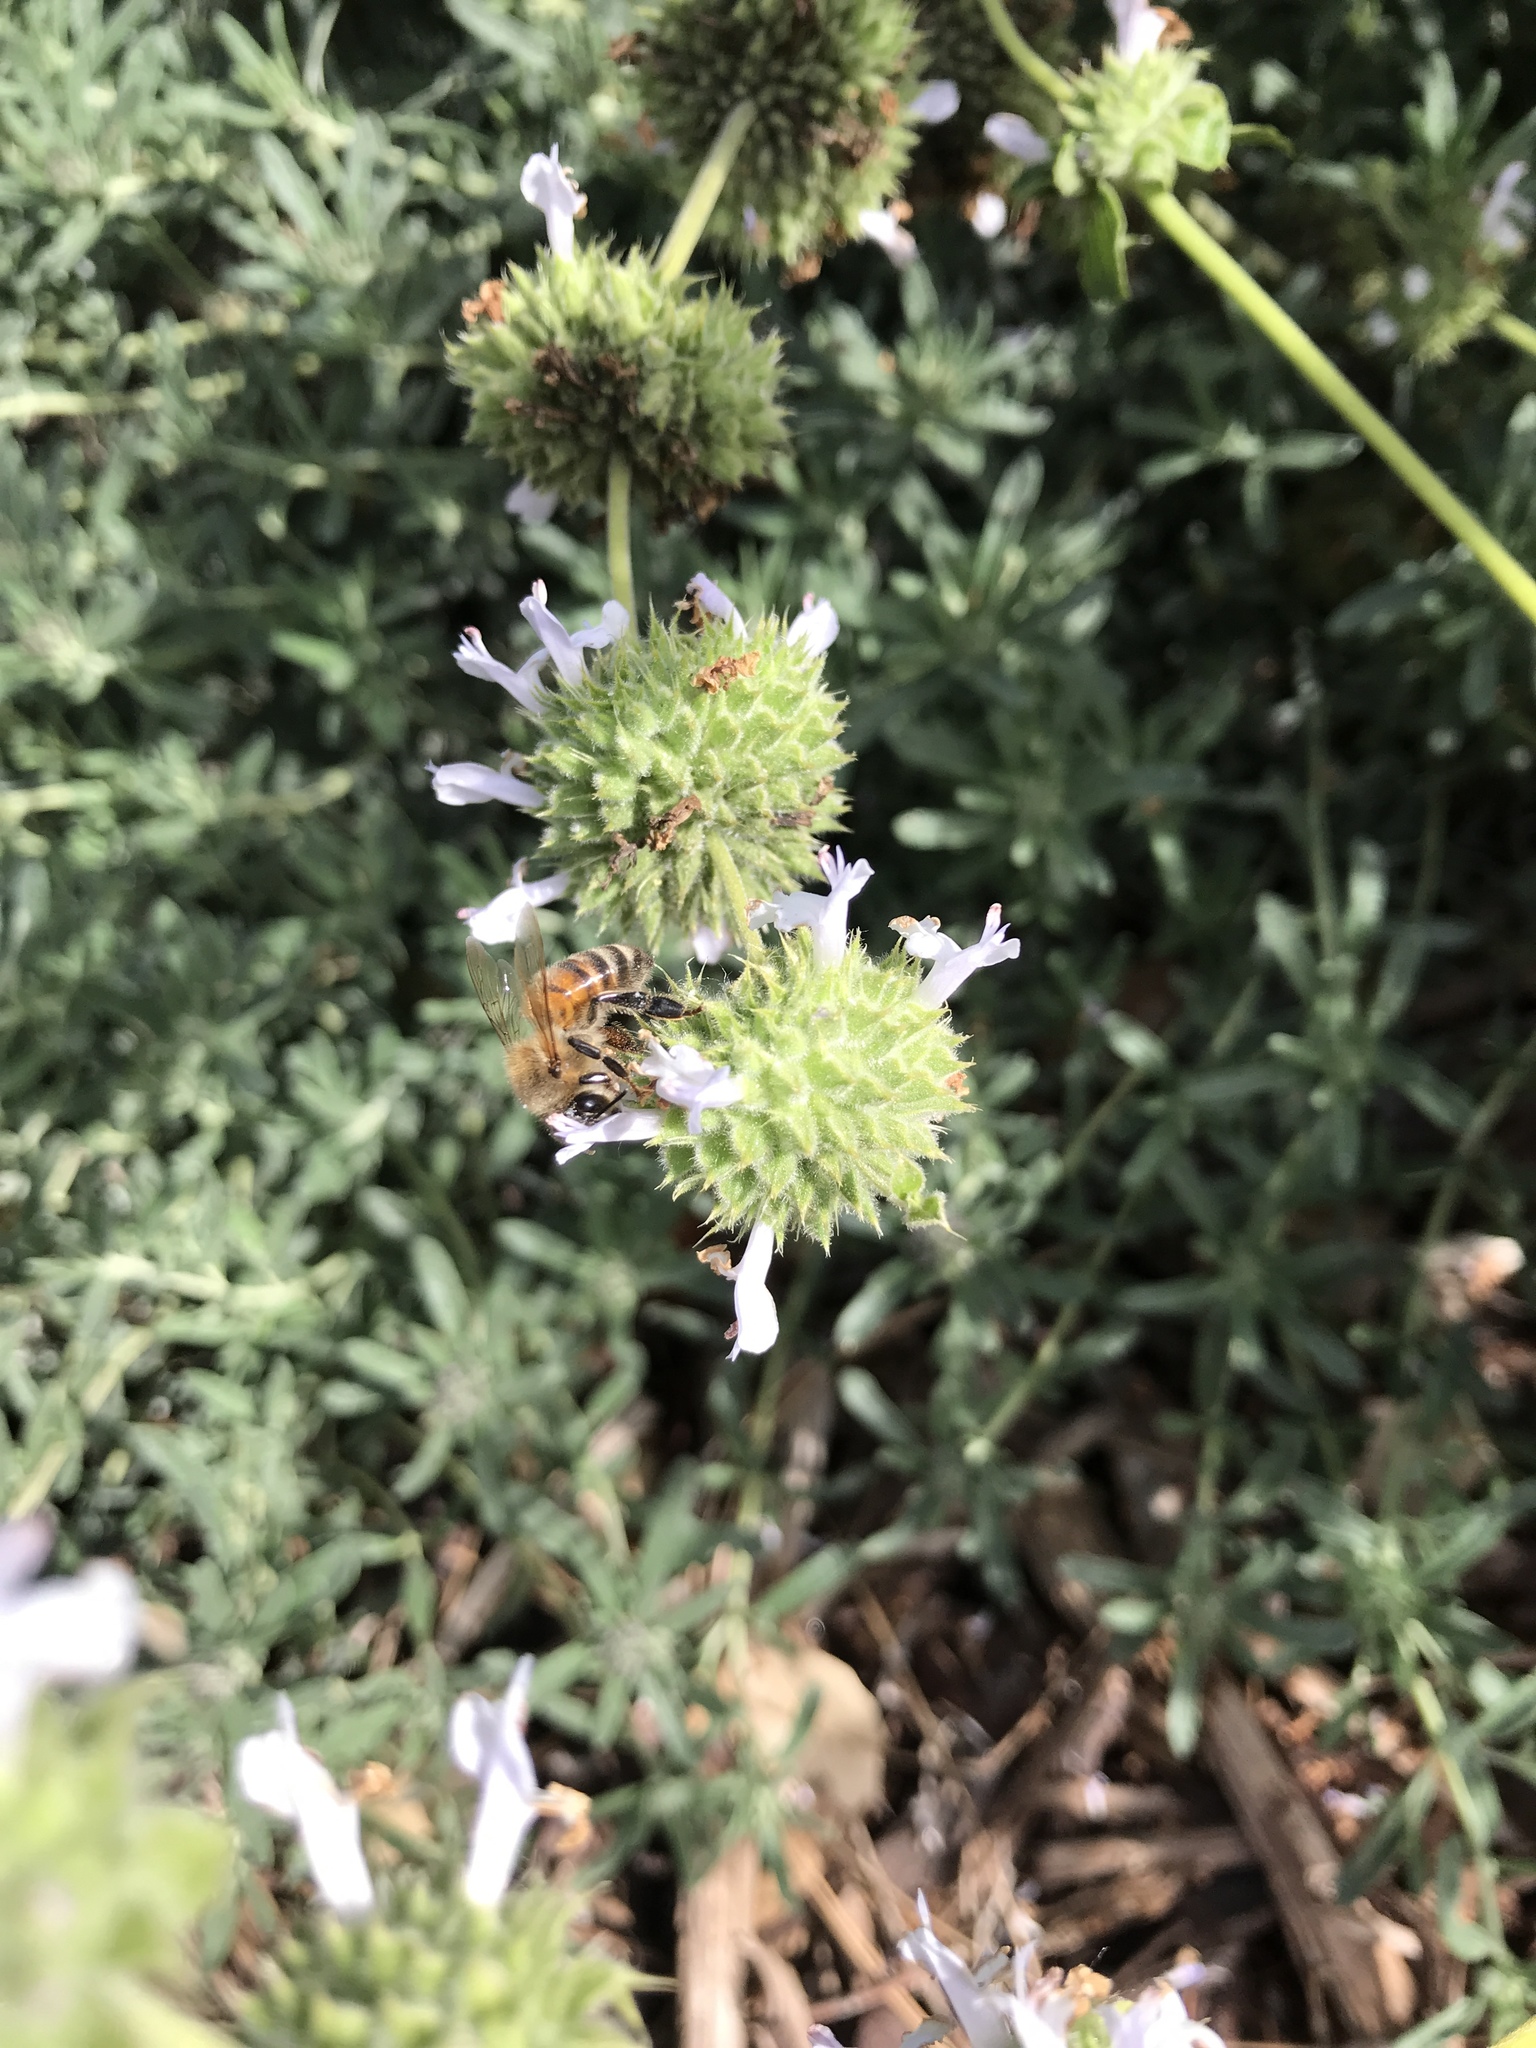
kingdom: Animalia
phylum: Arthropoda
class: Insecta
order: Hymenoptera
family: Apidae
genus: Apis
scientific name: Apis mellifera
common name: Honey bee
